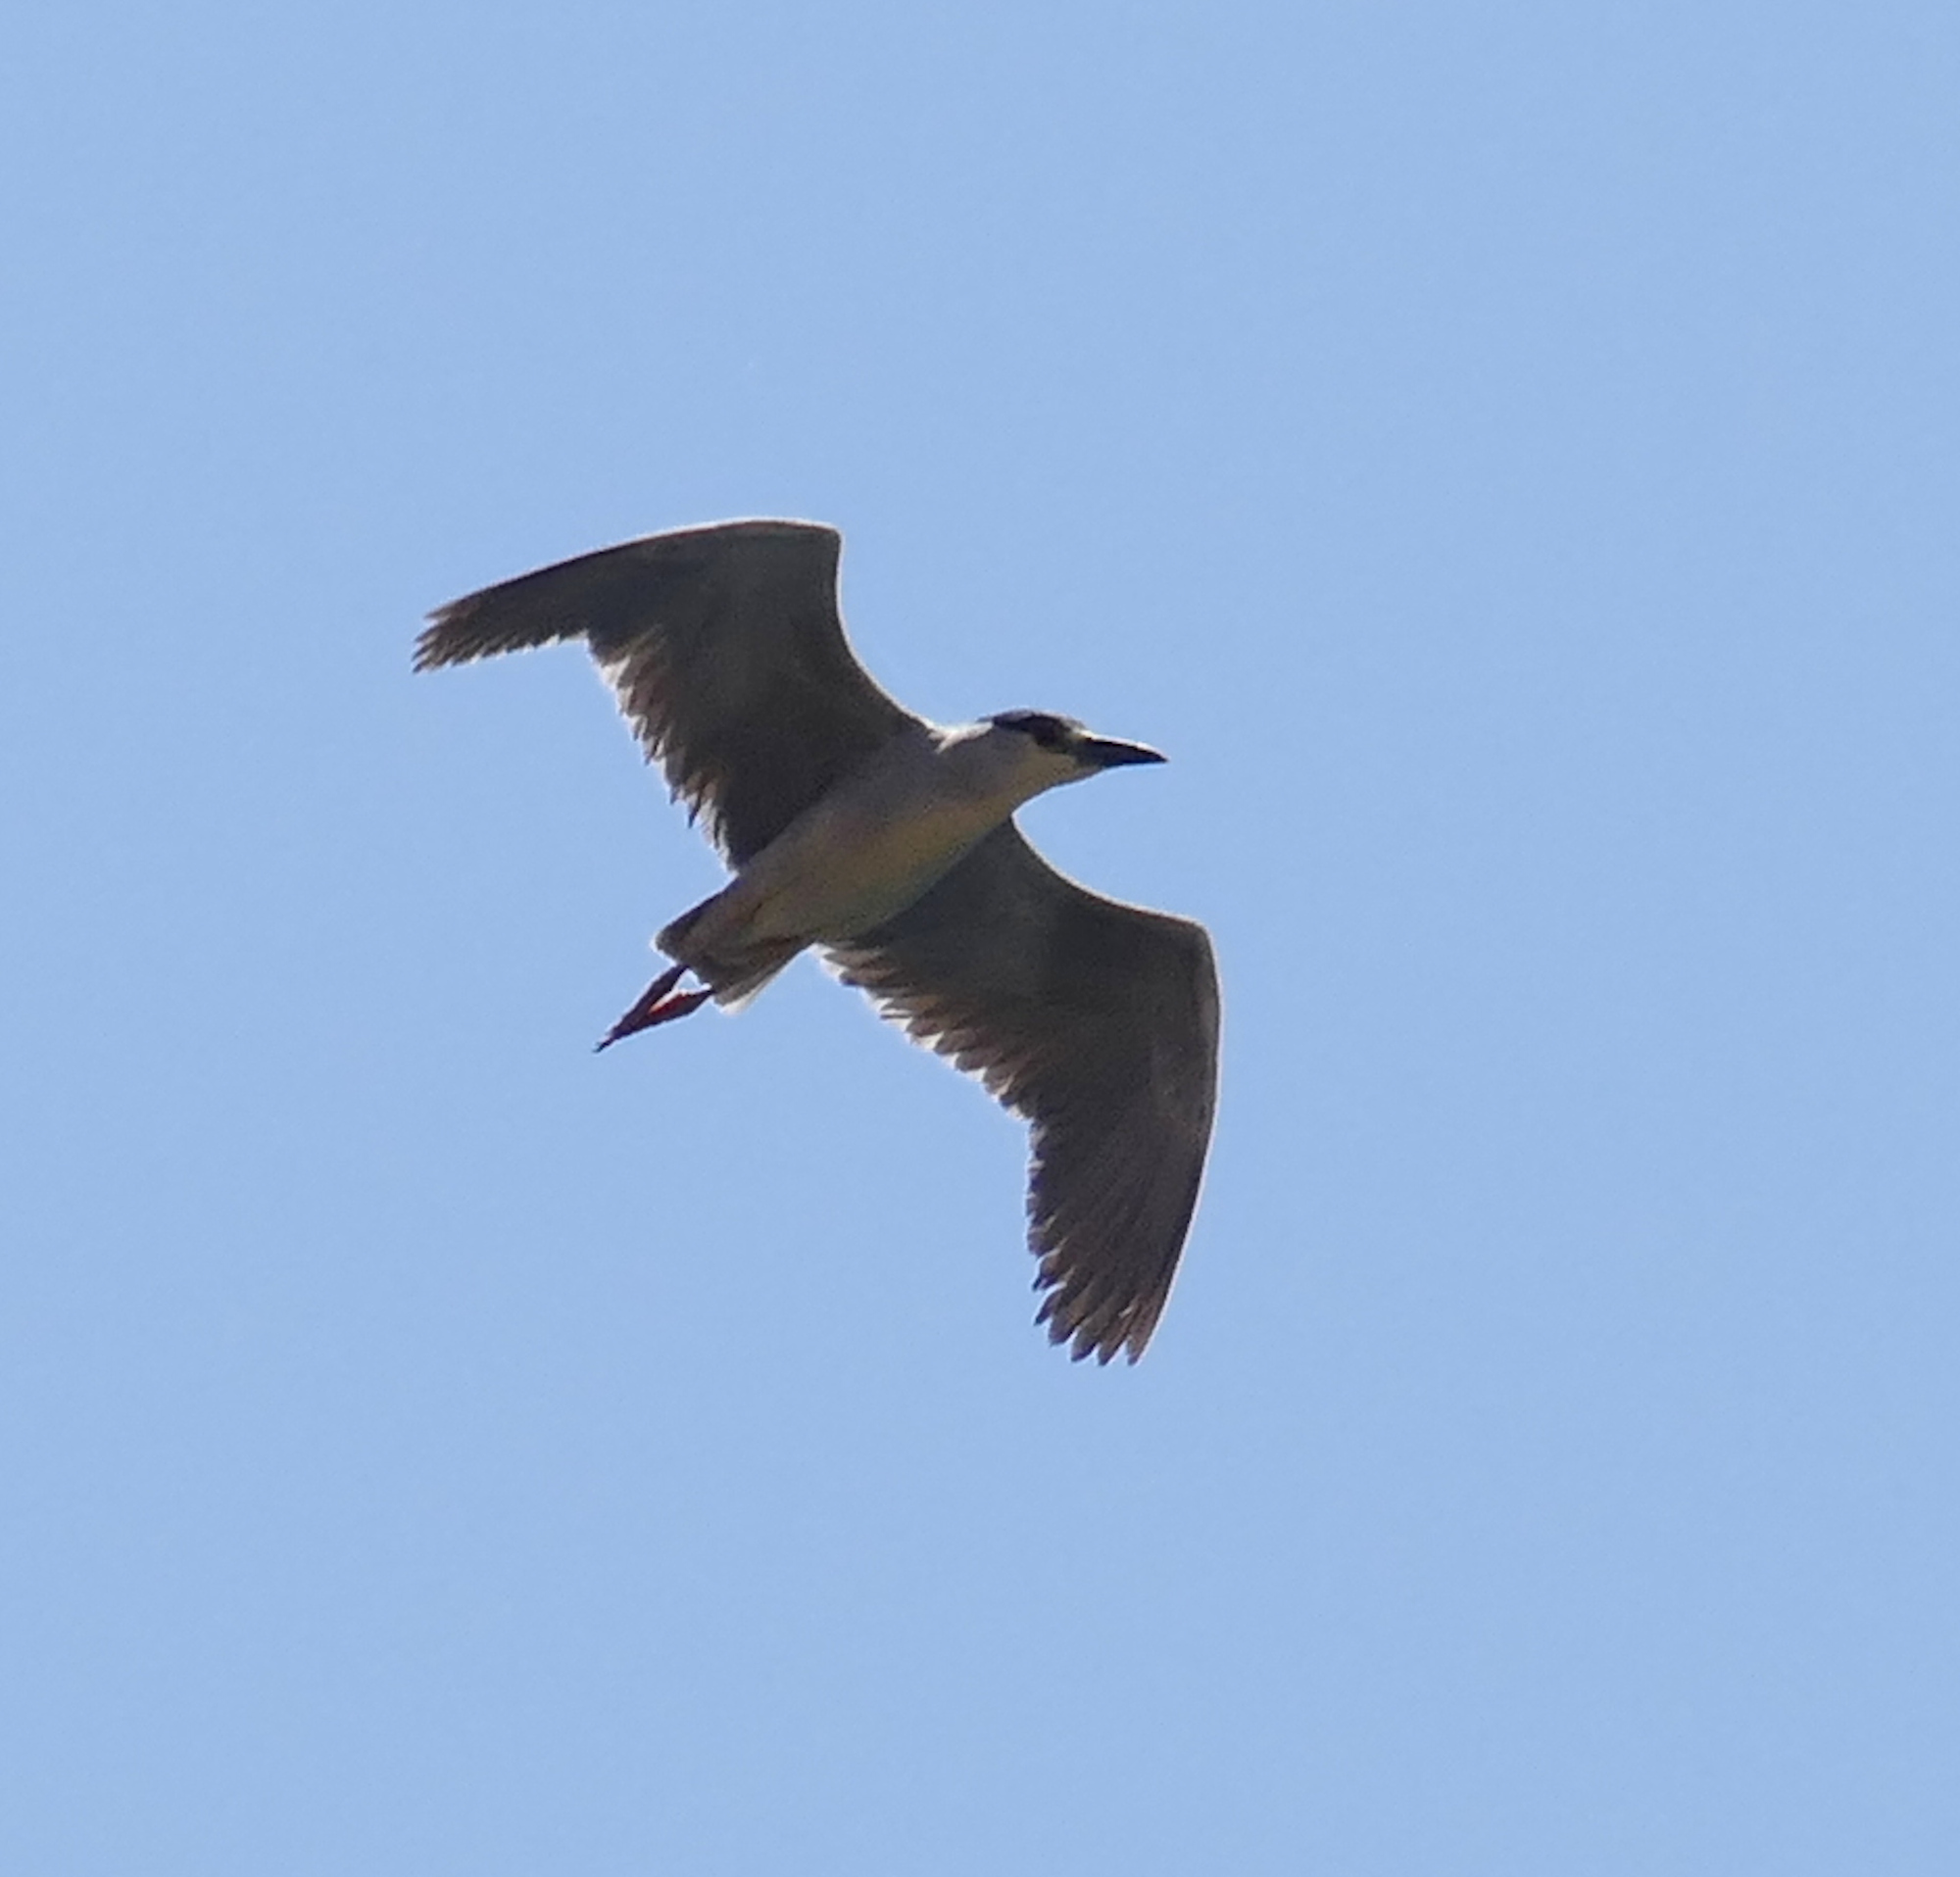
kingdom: Animalia
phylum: Chordata
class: Aves
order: Pelecaniformes
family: Ardeidae
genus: Nycticorax
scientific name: Nycticorax nycticorax
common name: Black-crowned night heron
